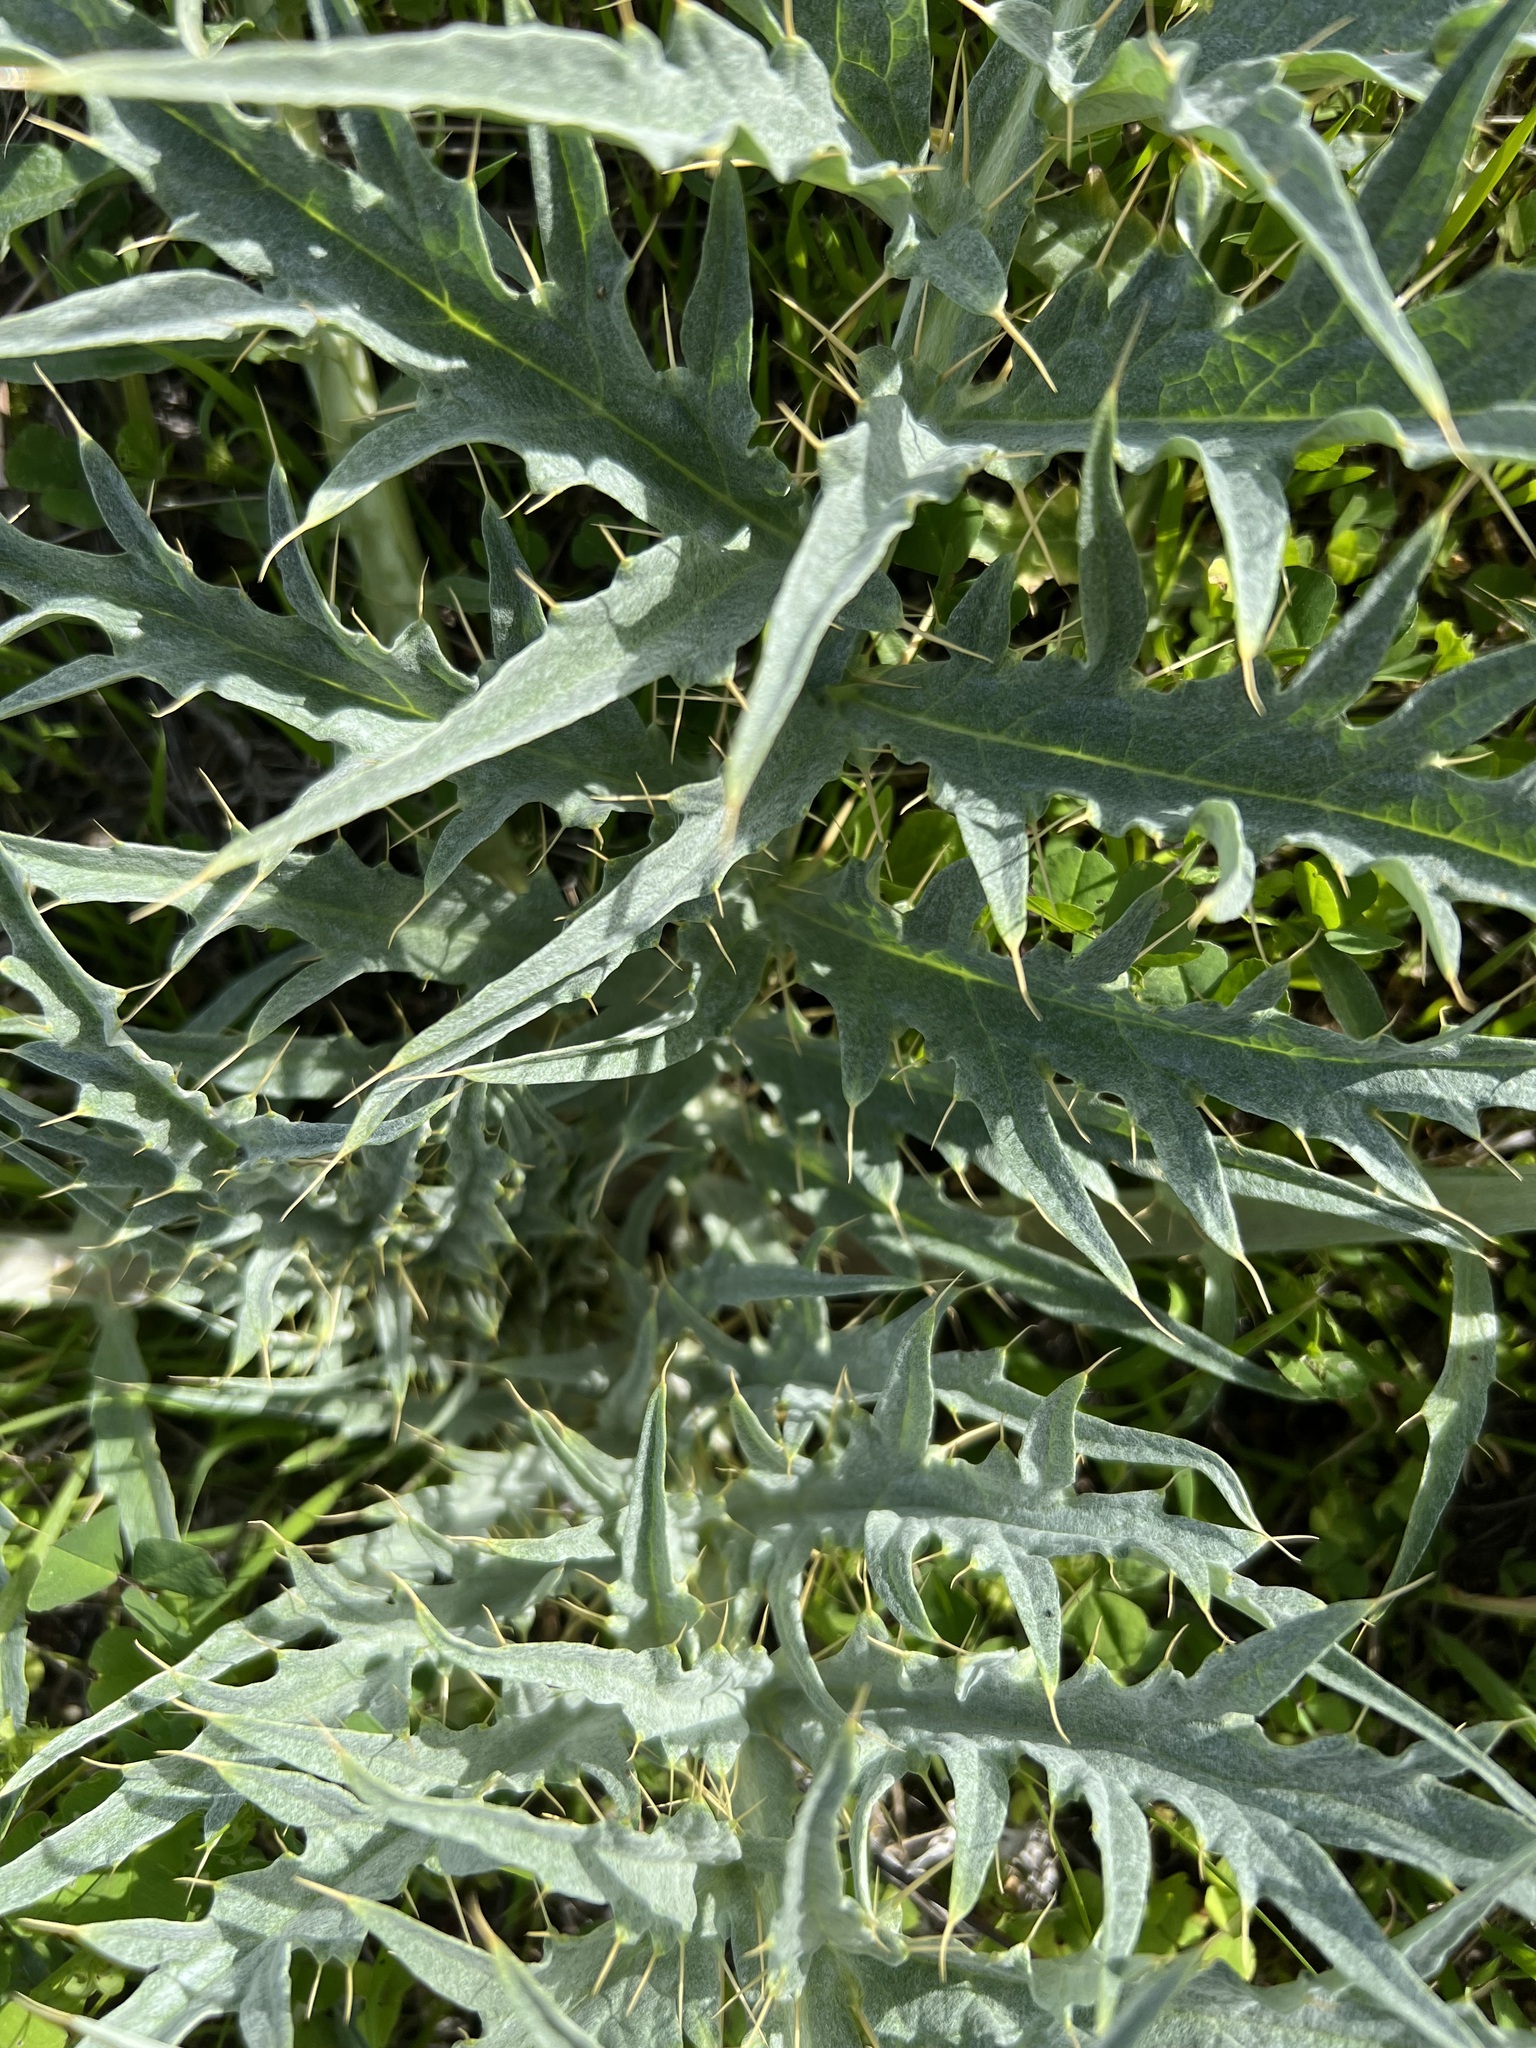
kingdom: Plantae
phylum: Tracheophyta
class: Magnoliopsida
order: Asterales
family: Asteraceae
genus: Cynara
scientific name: Cynara cardunculus
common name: Globe artichoke
